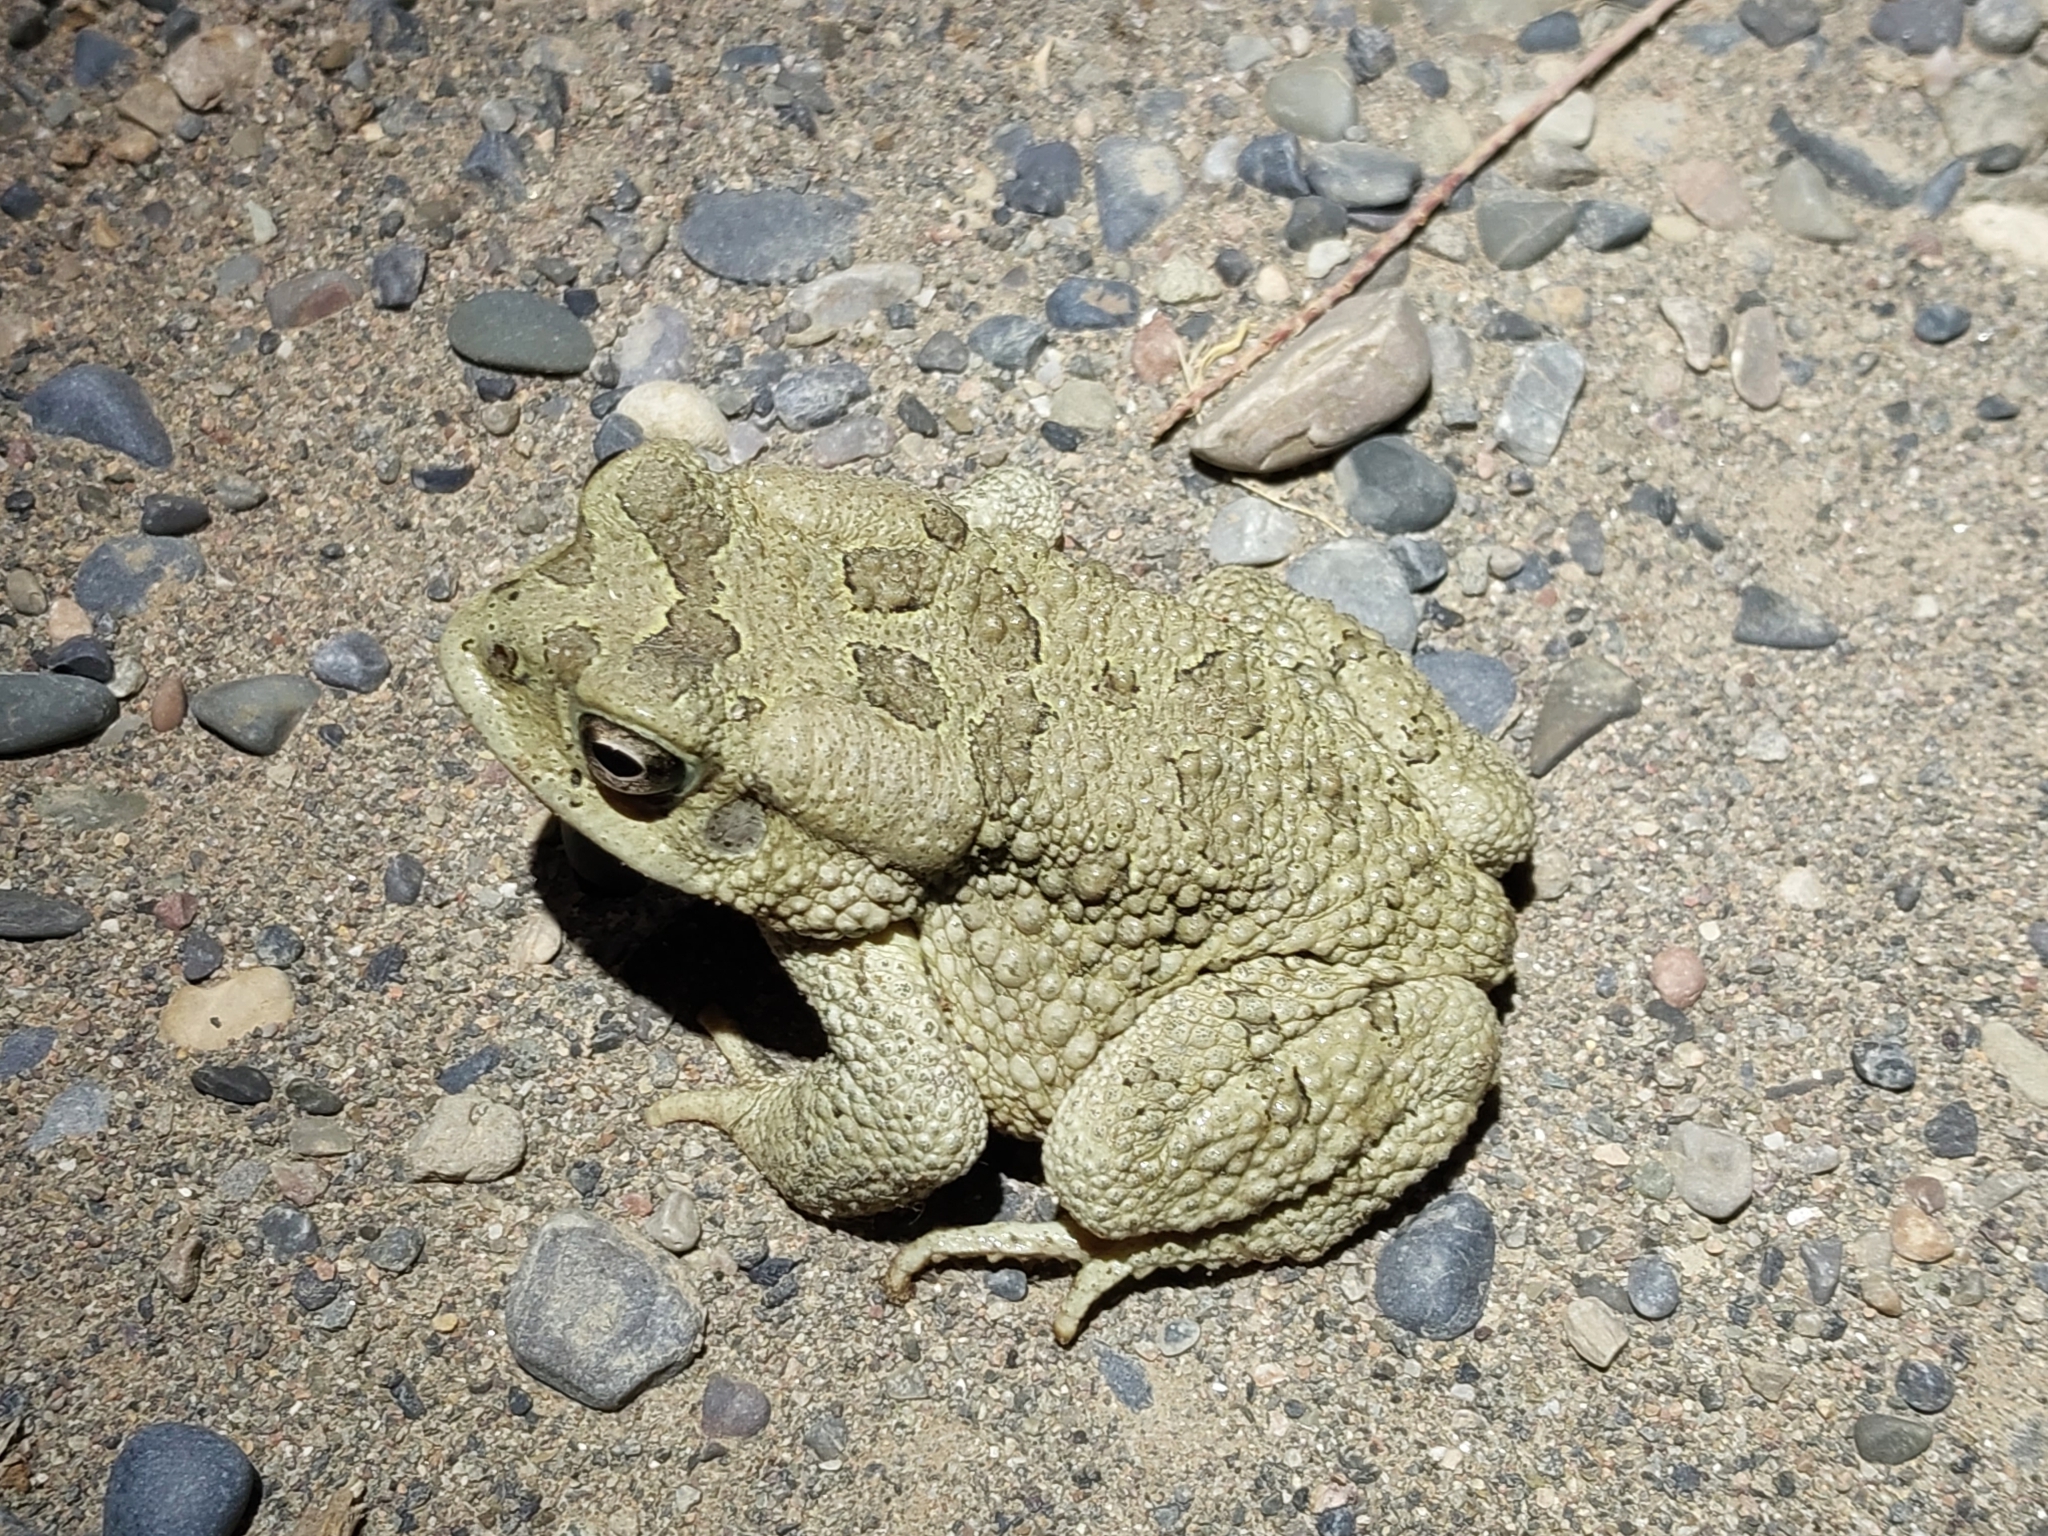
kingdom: Animalia
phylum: Chordata
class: Amphibia
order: Anura
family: Bufonidae
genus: Sclerophrys
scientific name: Sclerophrys mauritanica
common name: Berber toad
